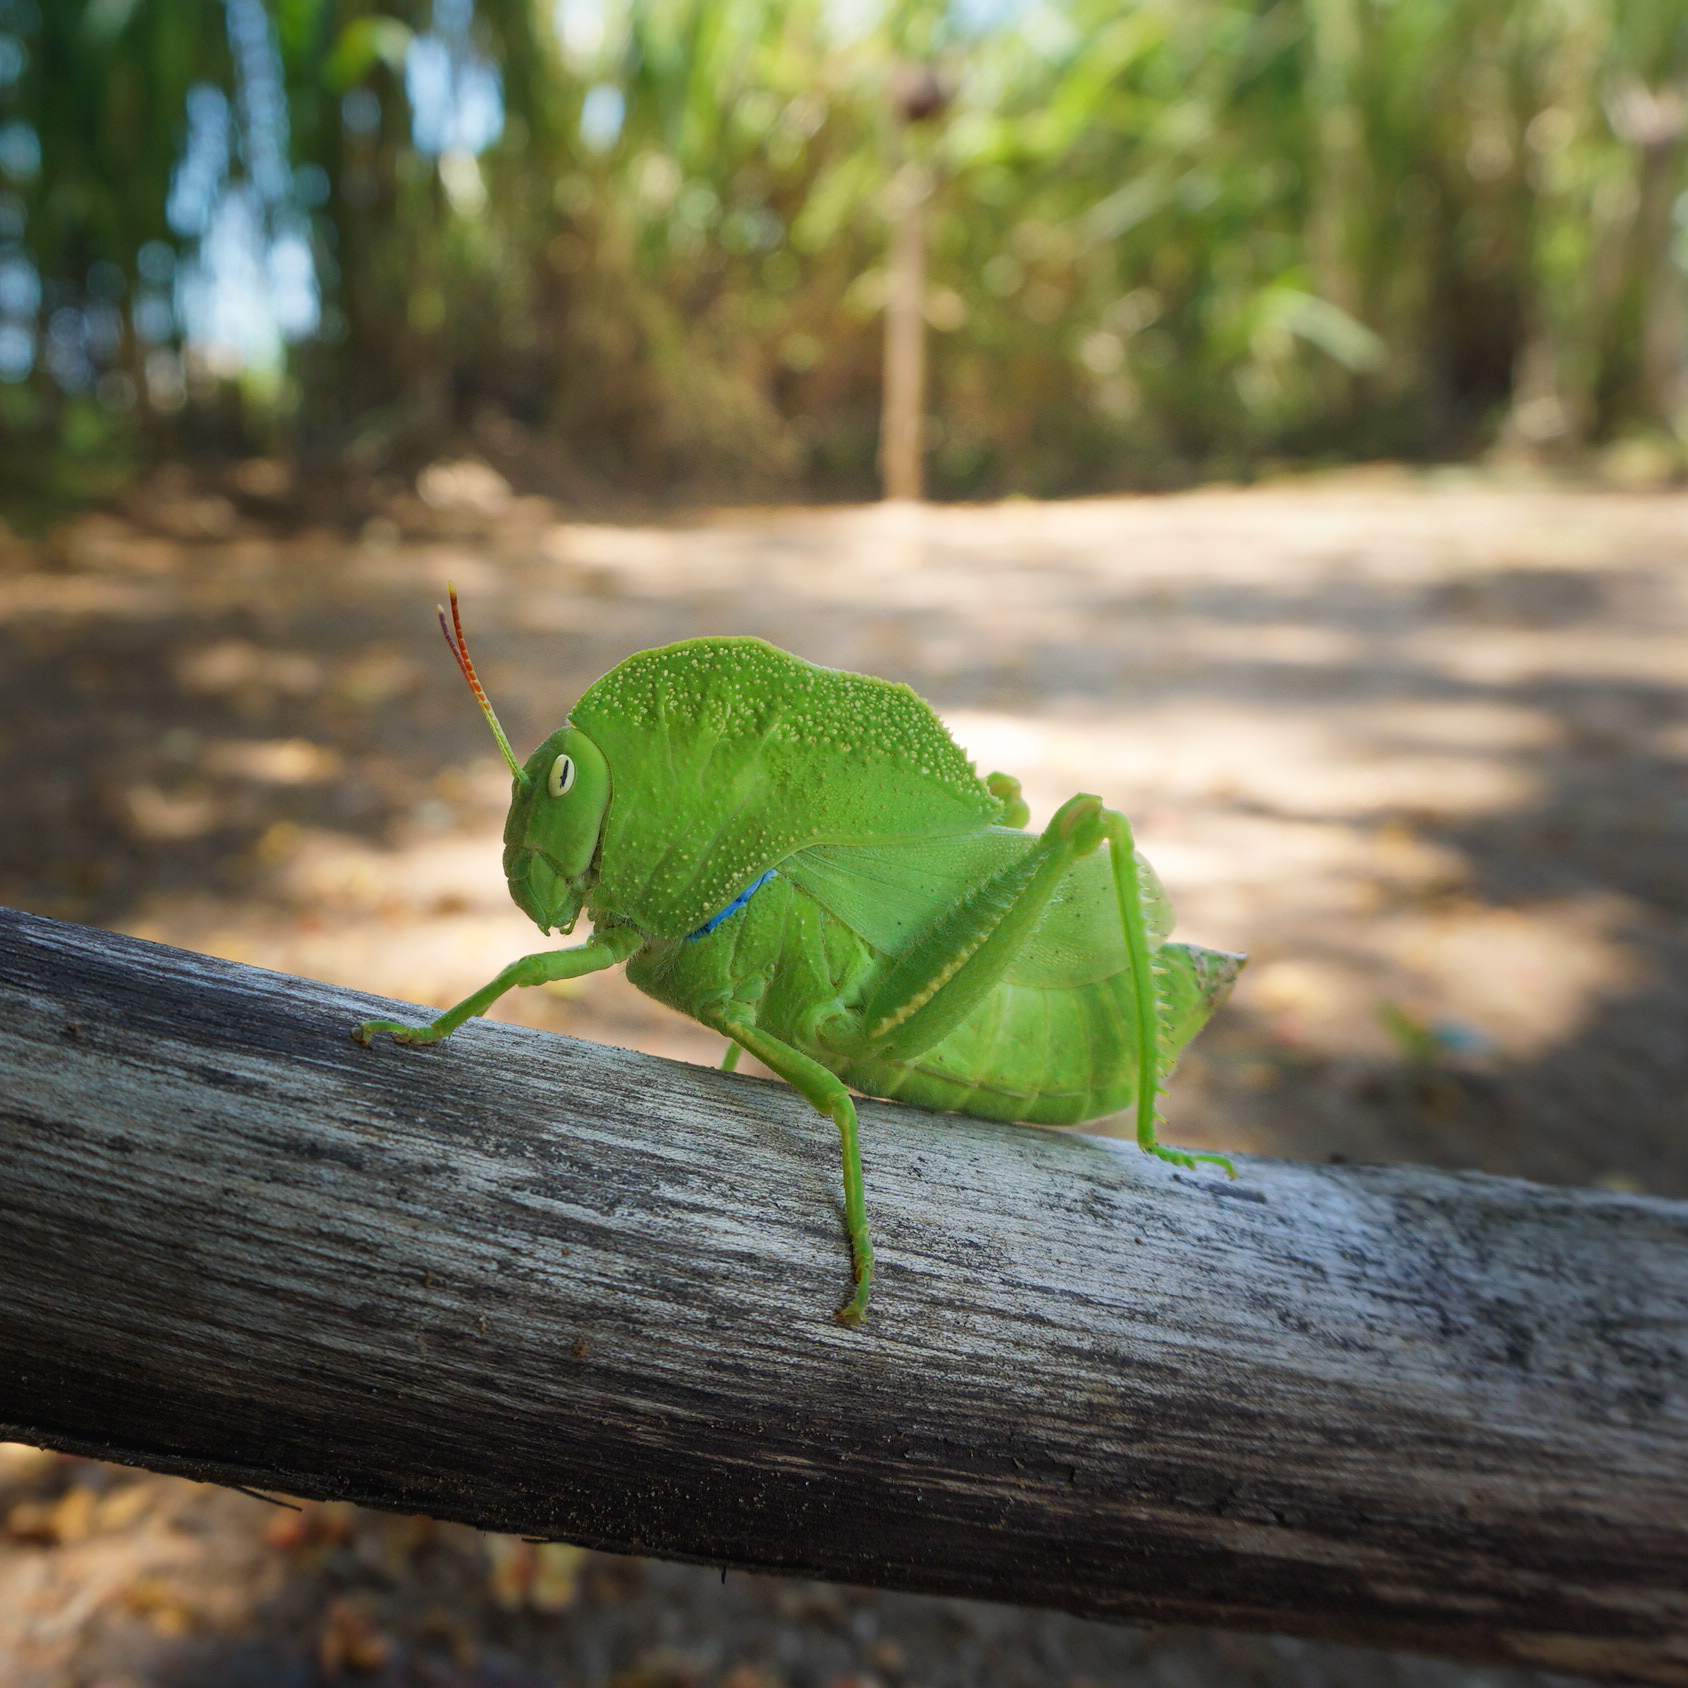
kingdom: Animalia
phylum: Arthropoda
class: Insecta
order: Orthoptera
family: Acrididae
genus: Teratodes
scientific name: Teratodes monticollis
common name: Hooded grasshopper
